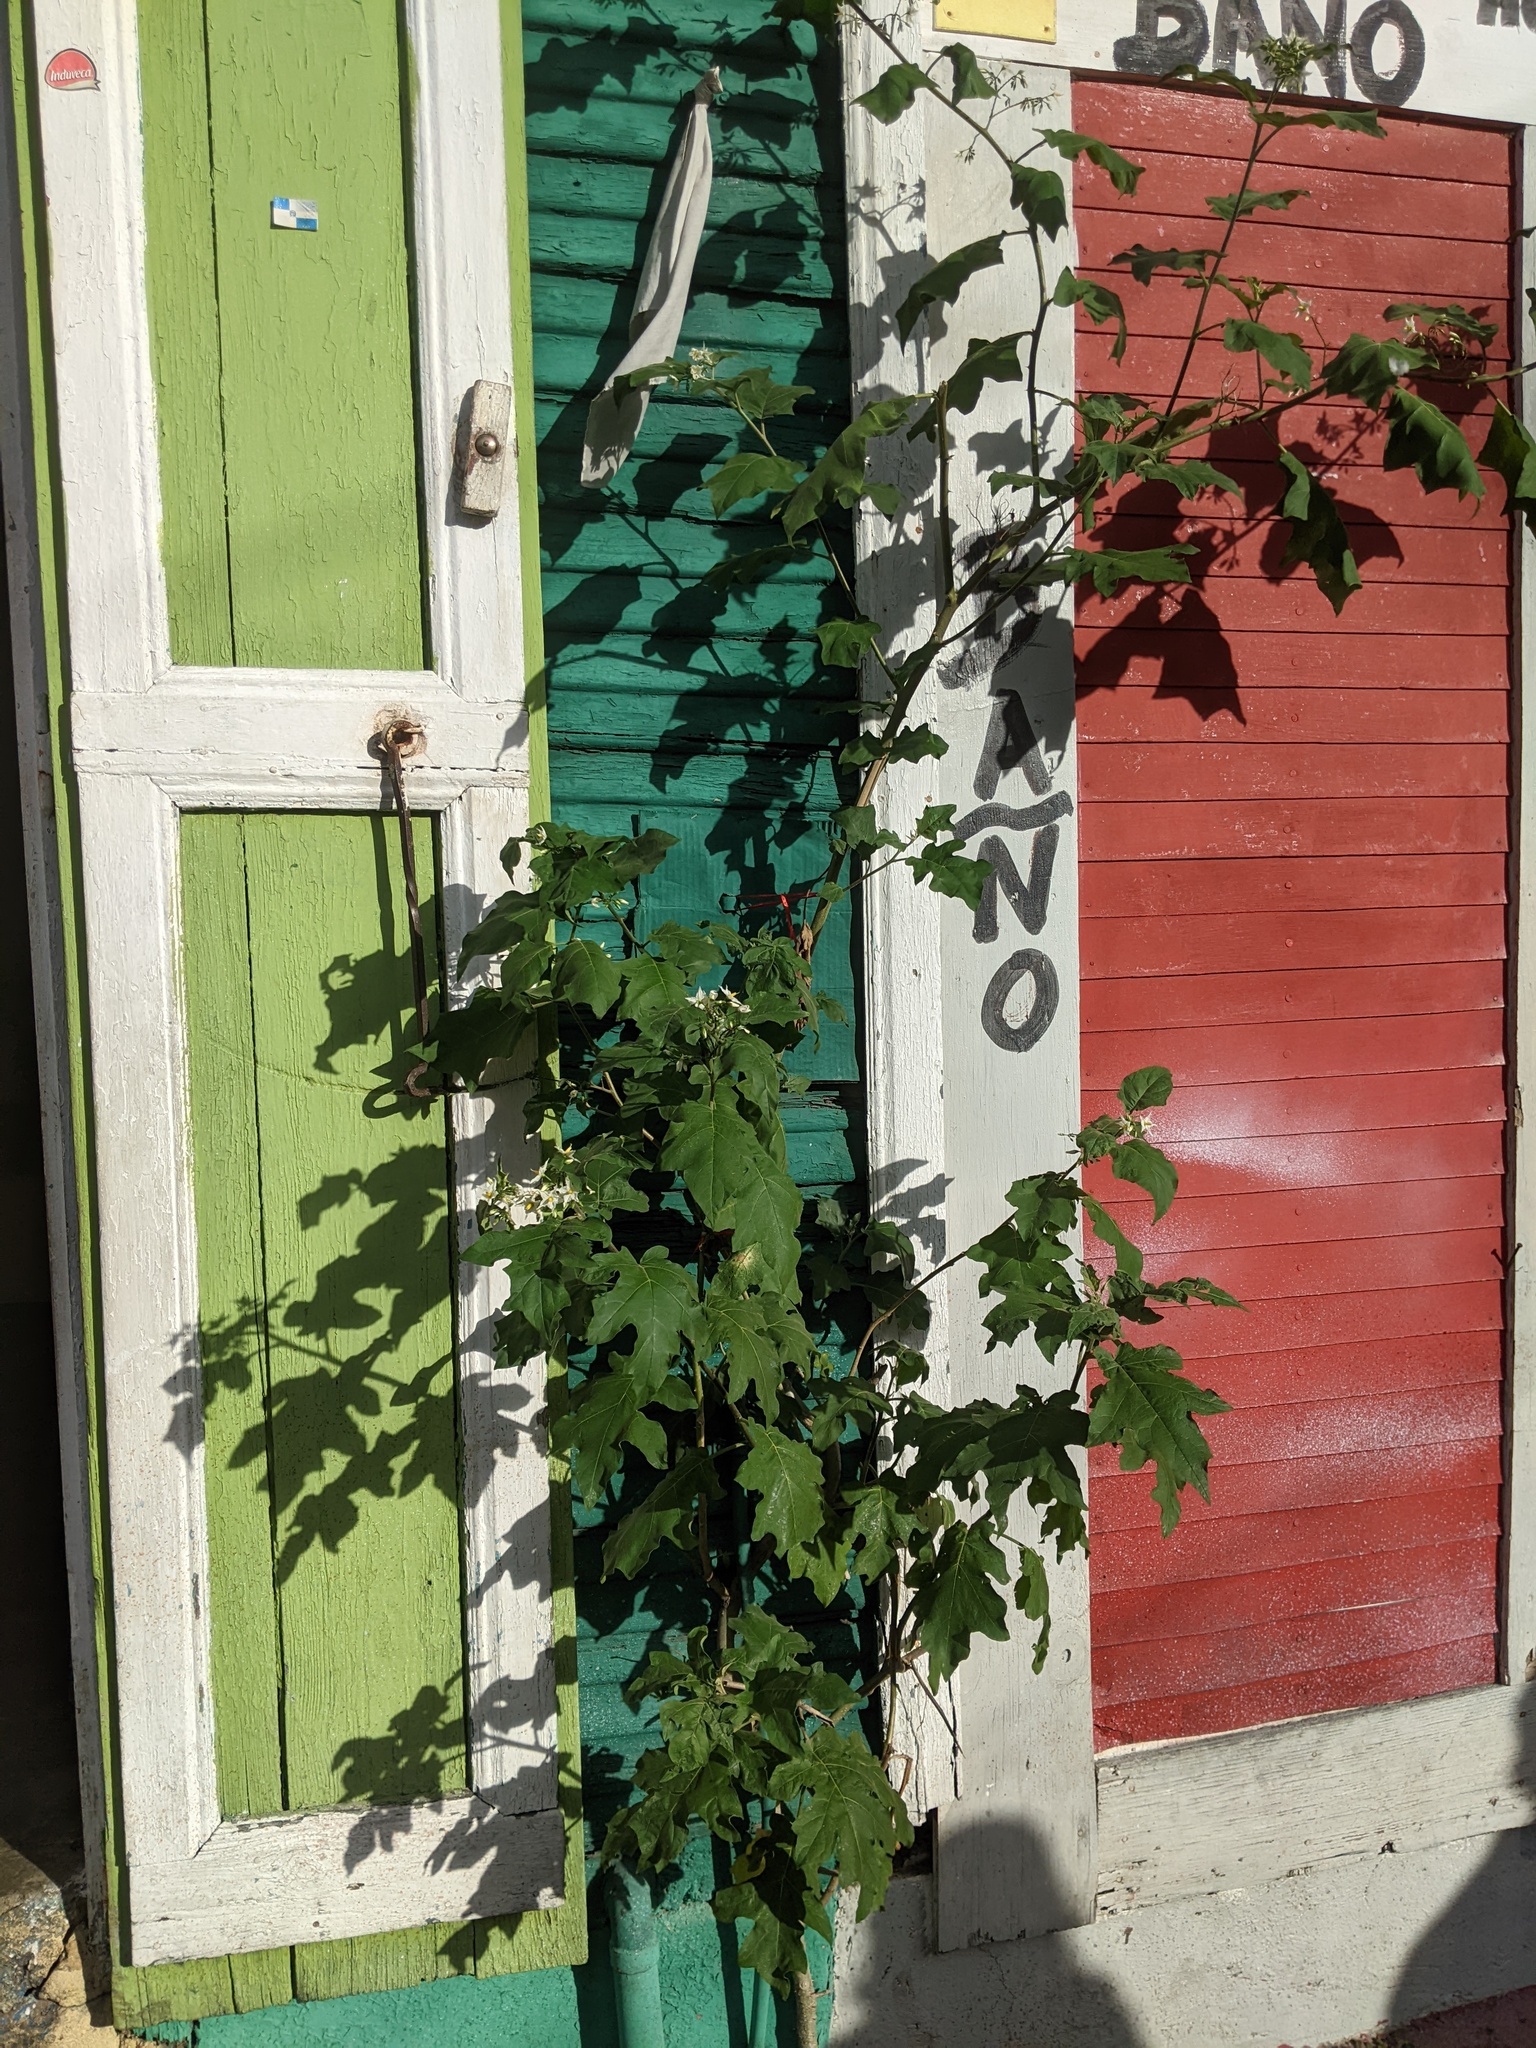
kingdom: Plantae
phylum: Tracheophyta
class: Magnoliopsida
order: Solanales
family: Solanaceae
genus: Solanum
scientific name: Solanum torvum
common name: Turkey berry
